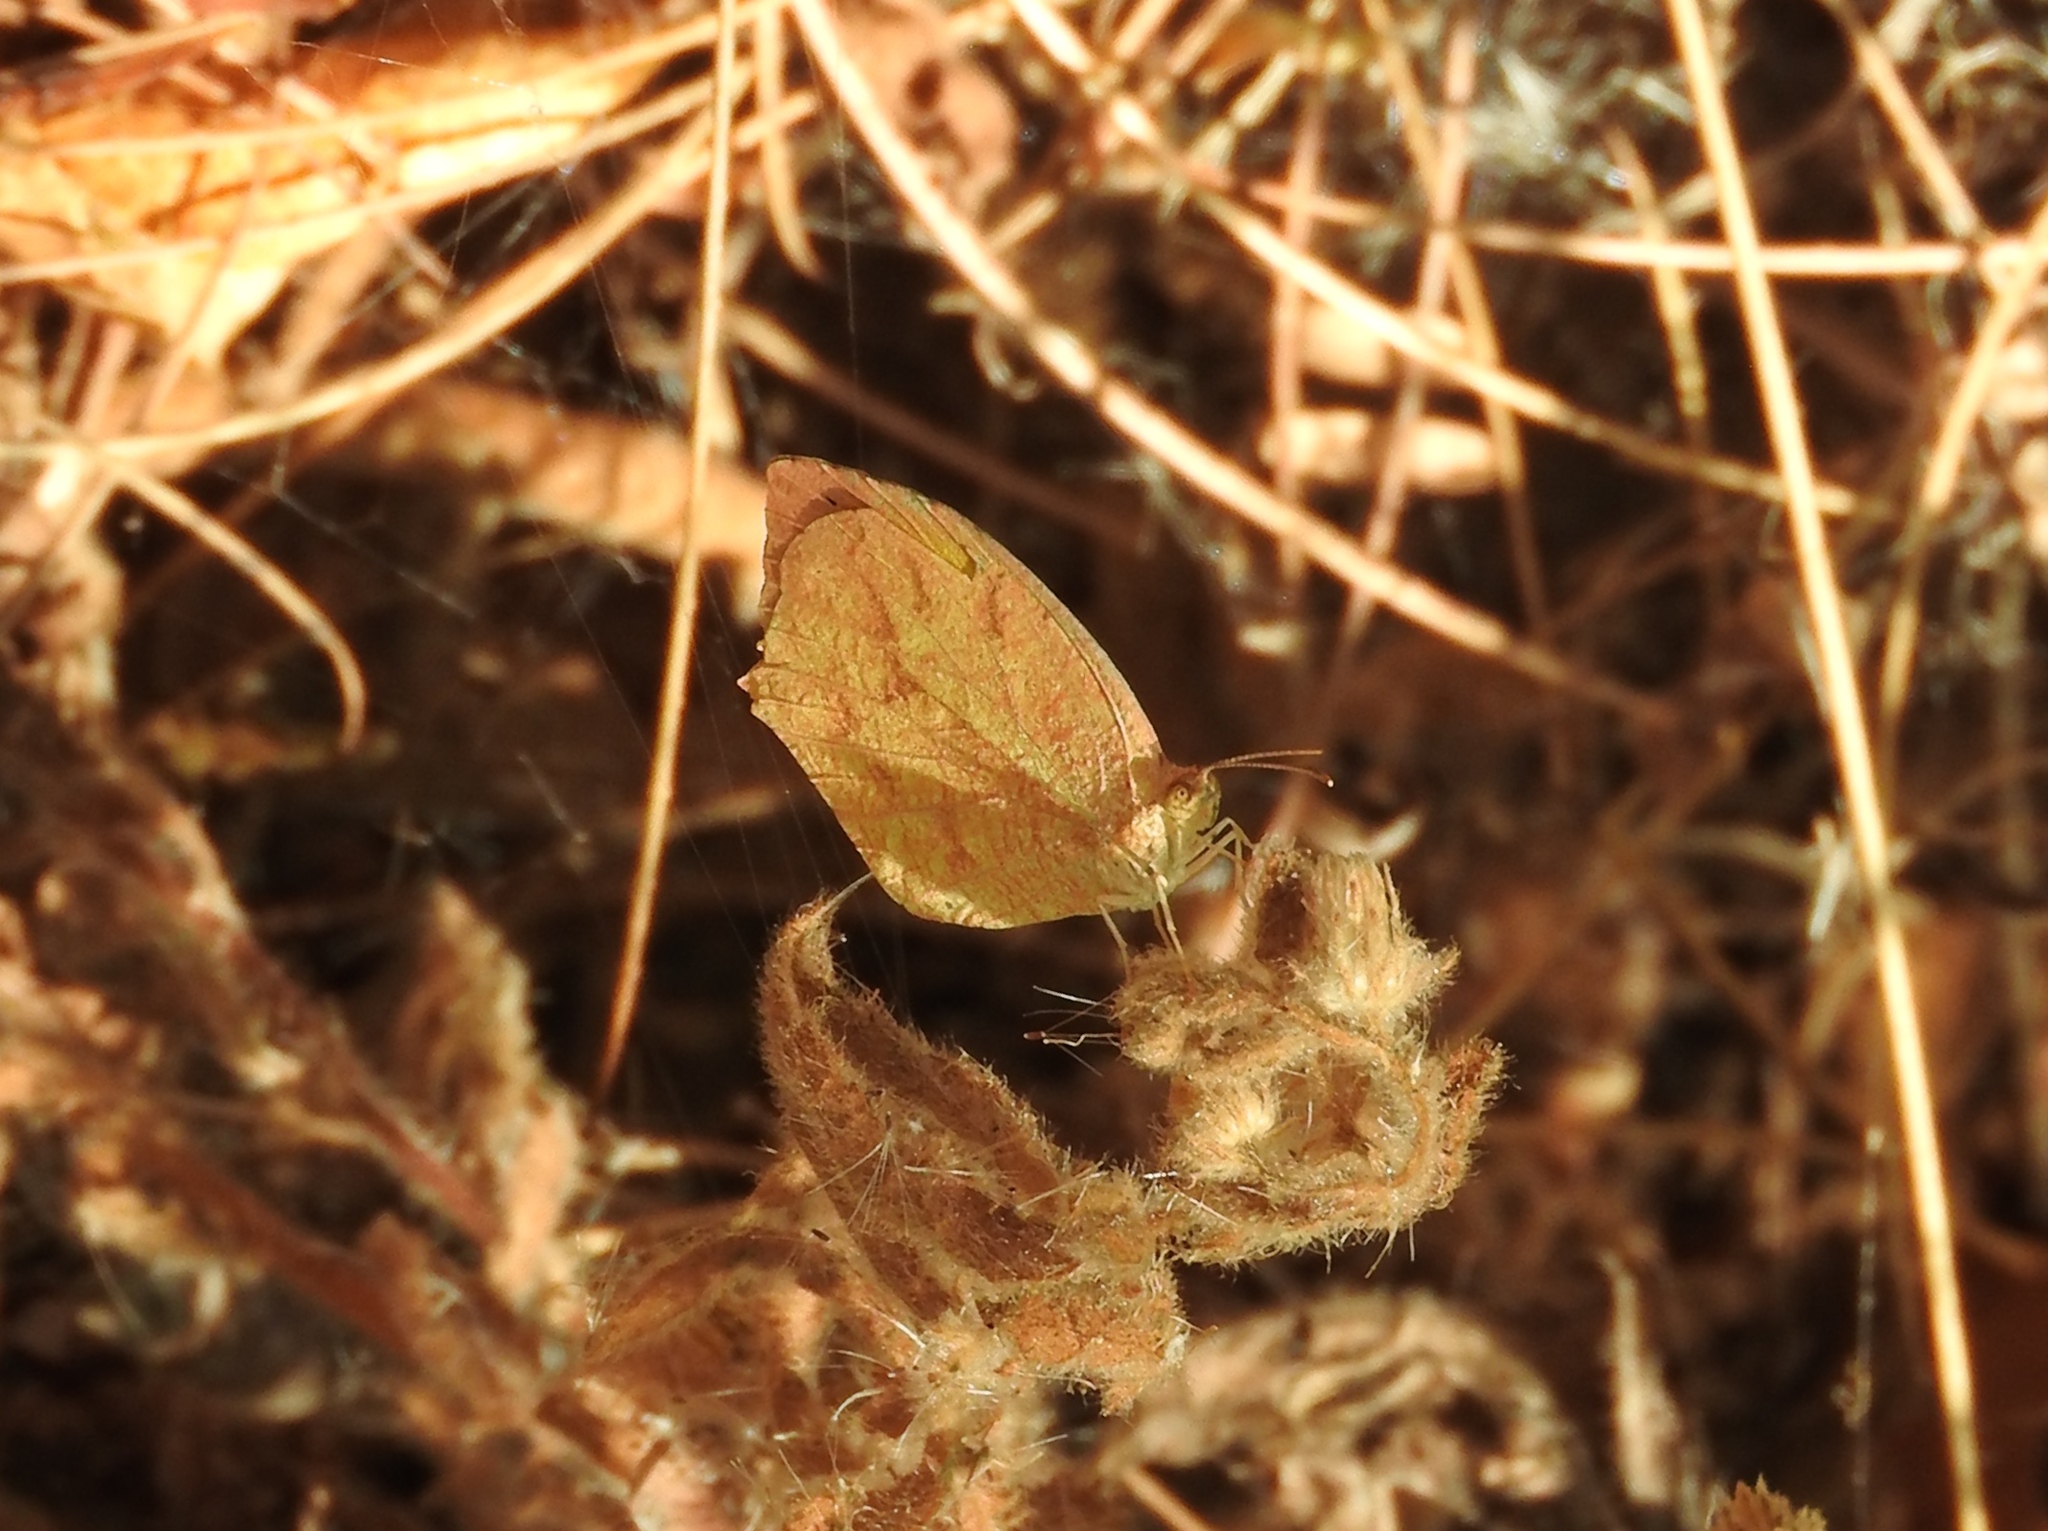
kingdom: Animalia
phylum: Arthropoda
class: Insecta
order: Lepidoptera
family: Pieridae
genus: Pyrisitia
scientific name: Pyrisitia proterpia
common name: Tailed orange
